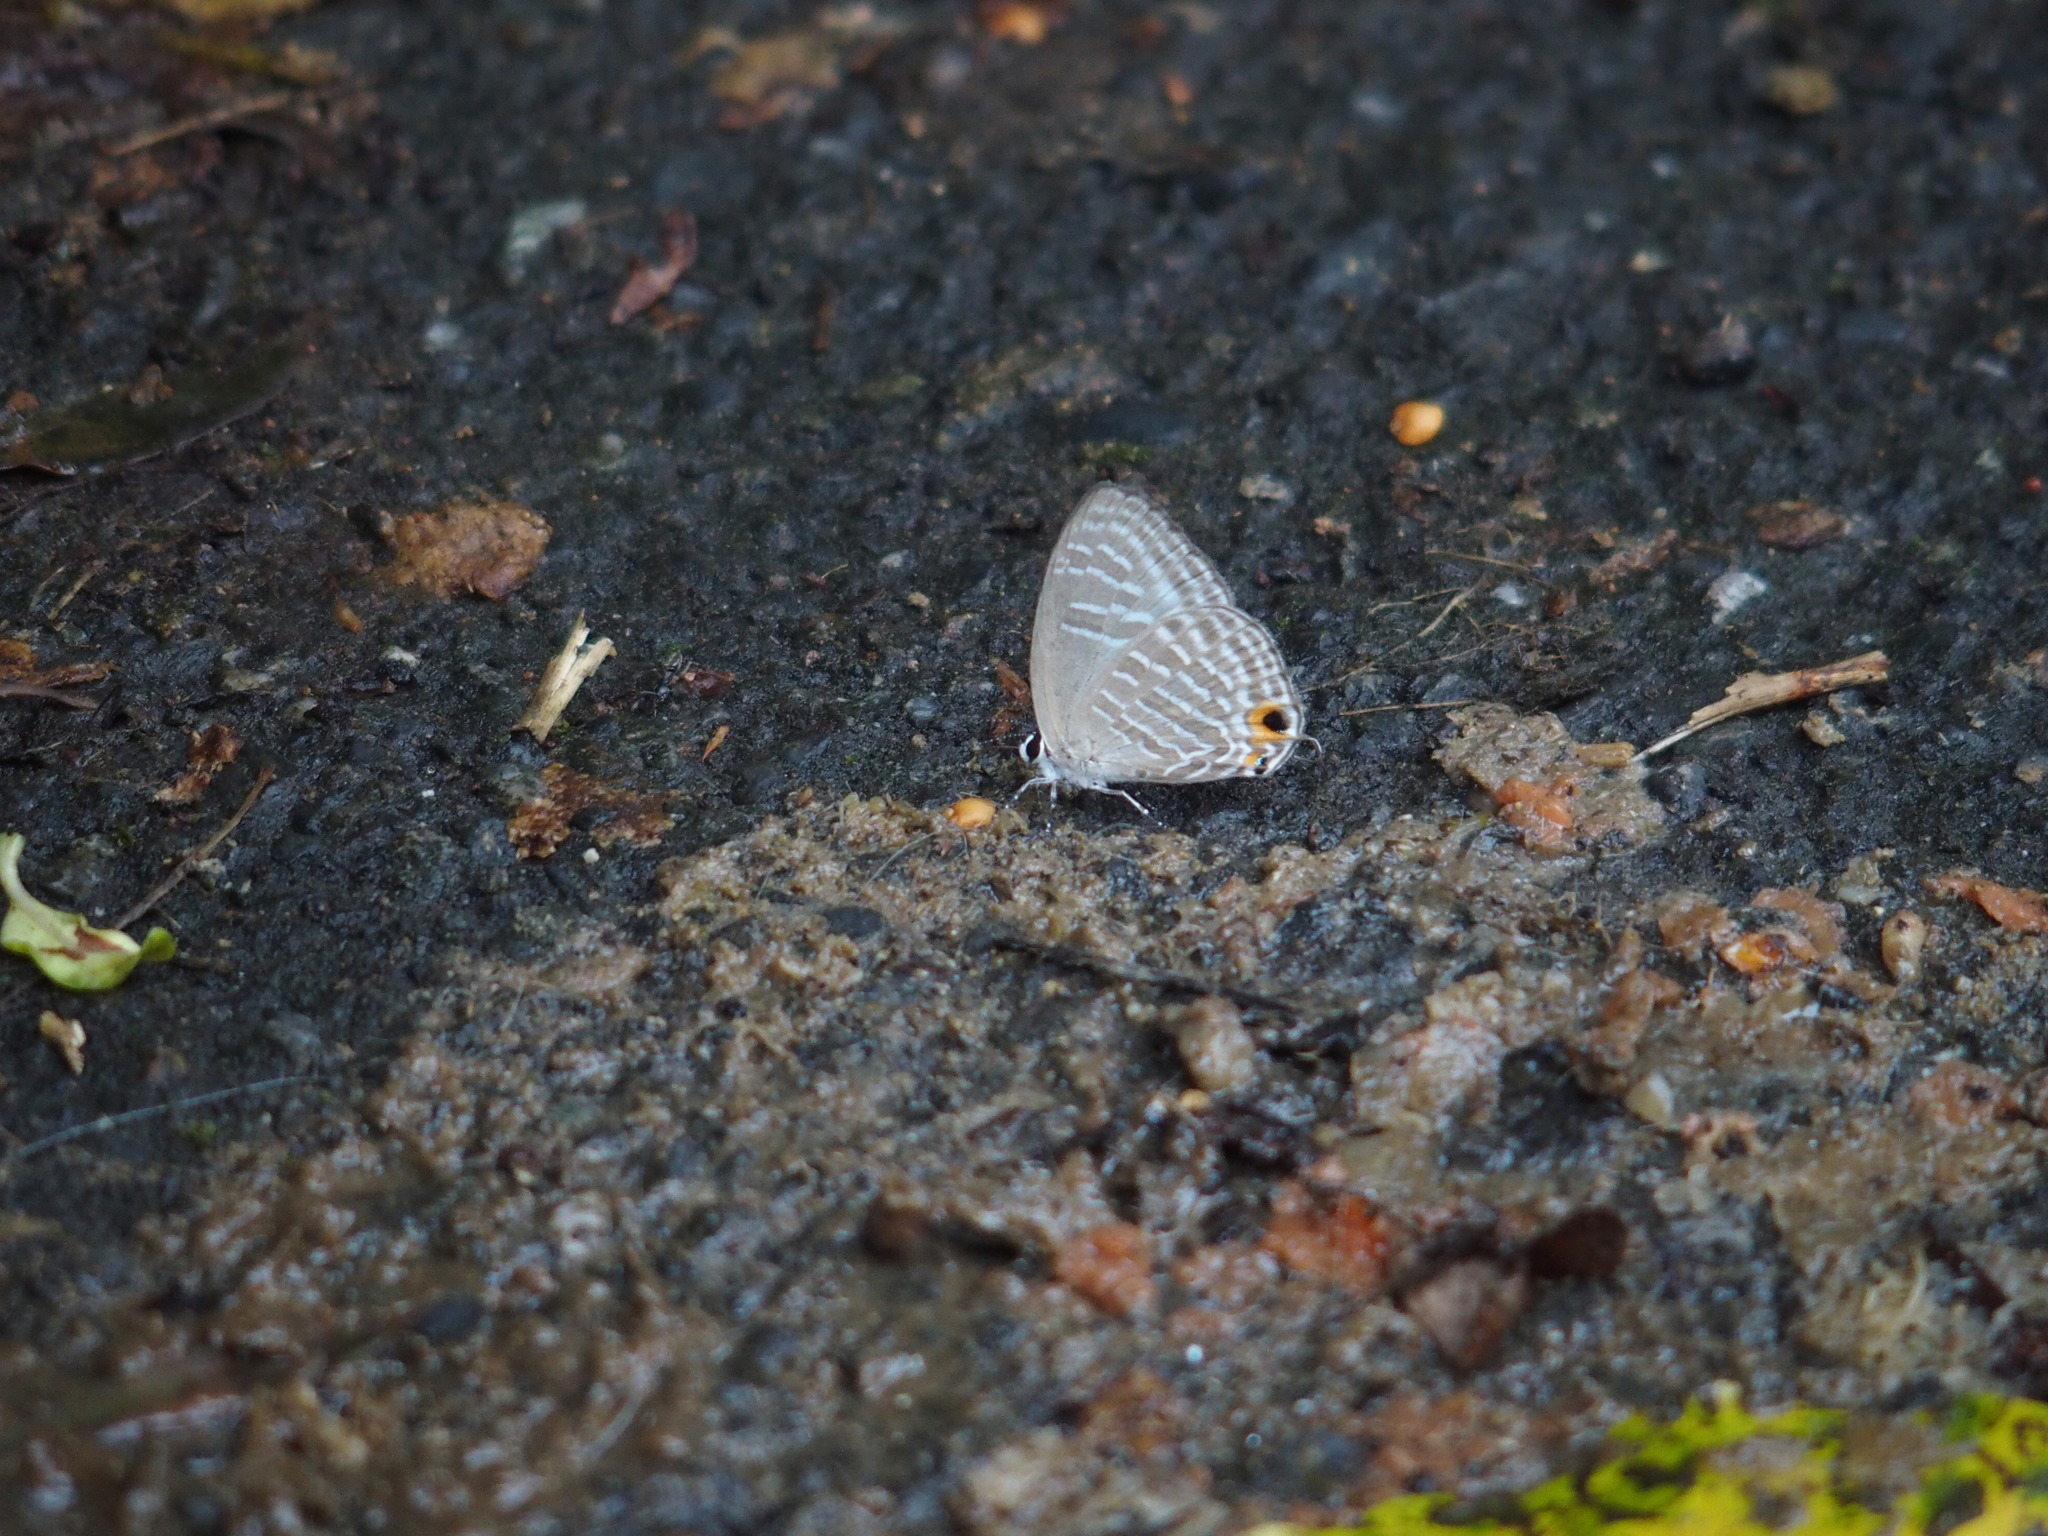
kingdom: Animalia
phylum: Arthropoda
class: Insecta
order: Lepidoptera
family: Lycaenidae
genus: Jamides
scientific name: Jamides alecto
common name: Metallic cerulean
